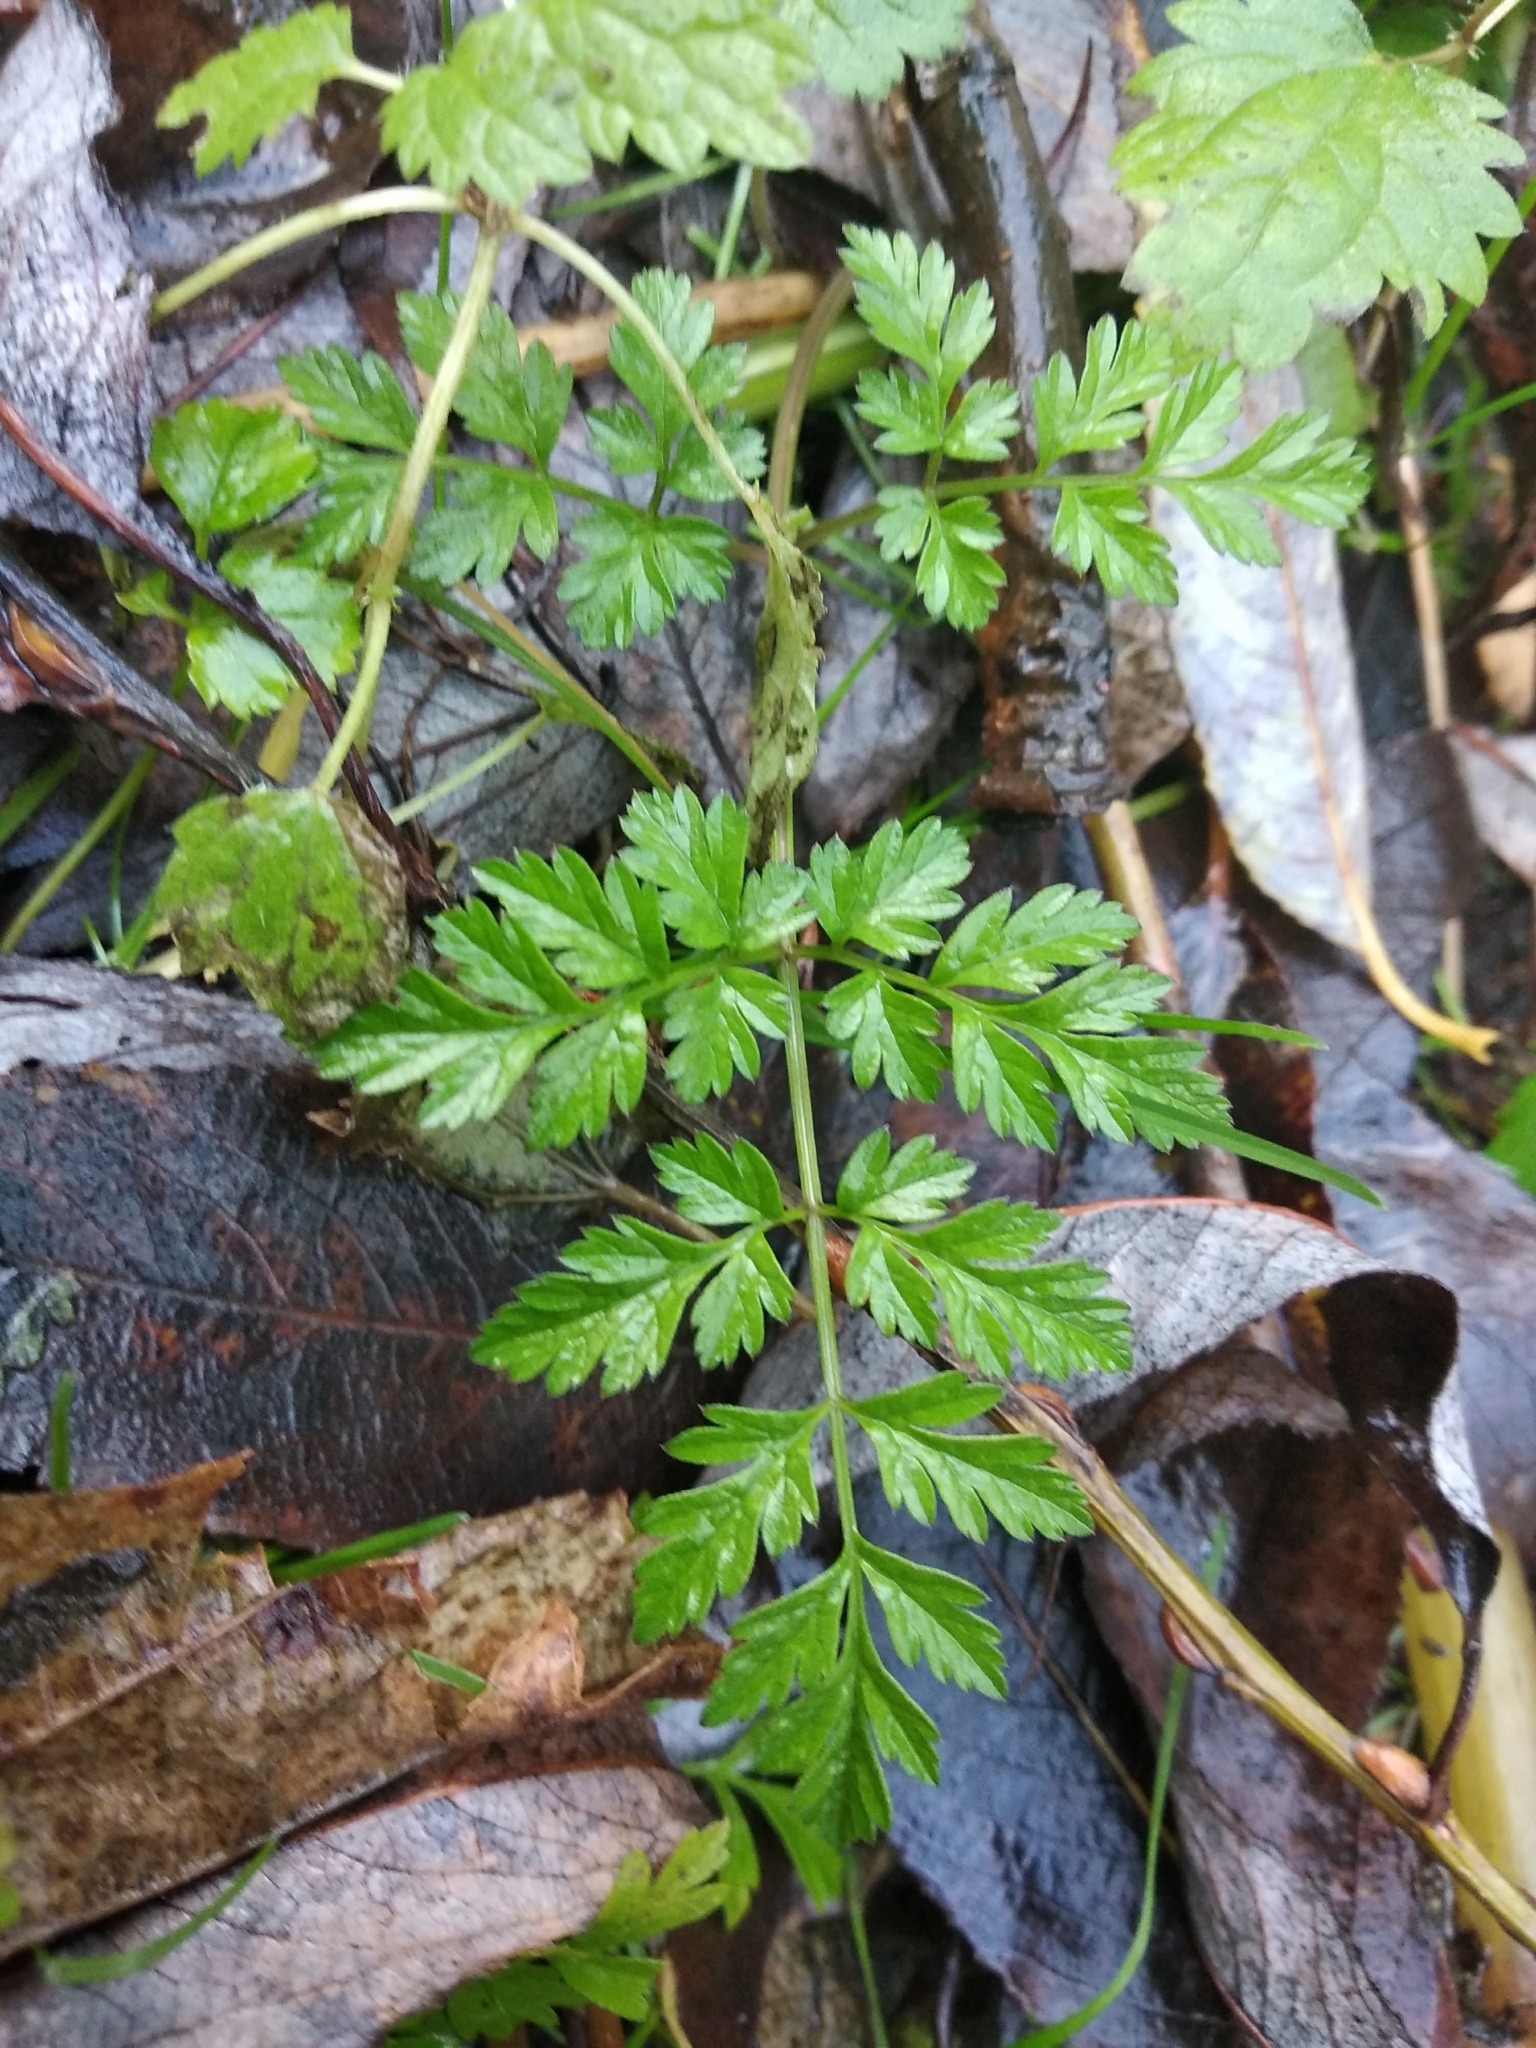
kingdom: Plantae
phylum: Tracheophyta
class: Magnoliopsida
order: Apiales
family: Apiaceae
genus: Anthriscus
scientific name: Anthriscus sylvestris
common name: Cow parsley
